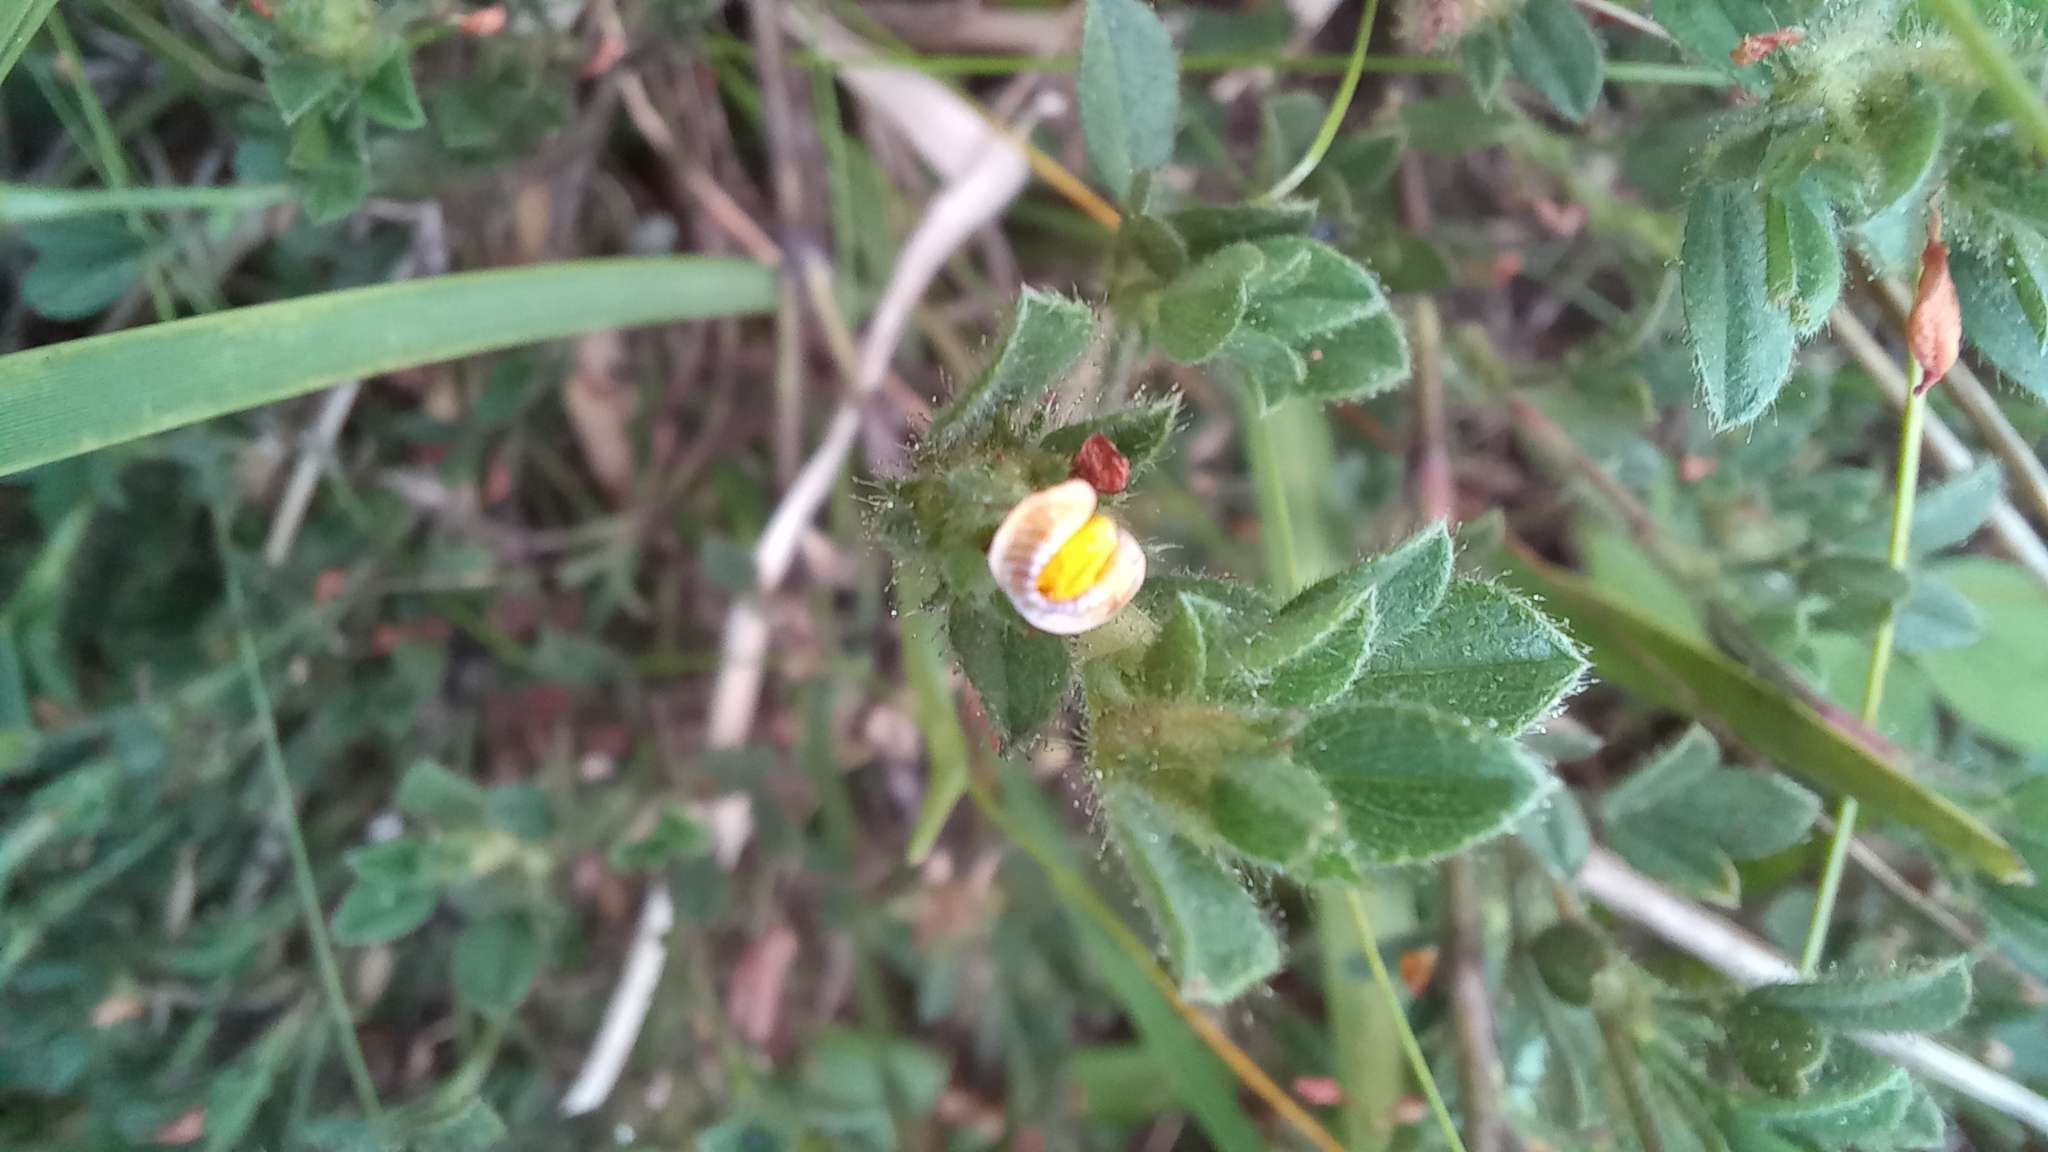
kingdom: Plantae
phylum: Tracheophyta
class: Magnoliopsida
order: Fabales
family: Fabaceae
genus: Stylosanthes
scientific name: Stylosanthes viscosa
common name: Viscid pencil-flower
